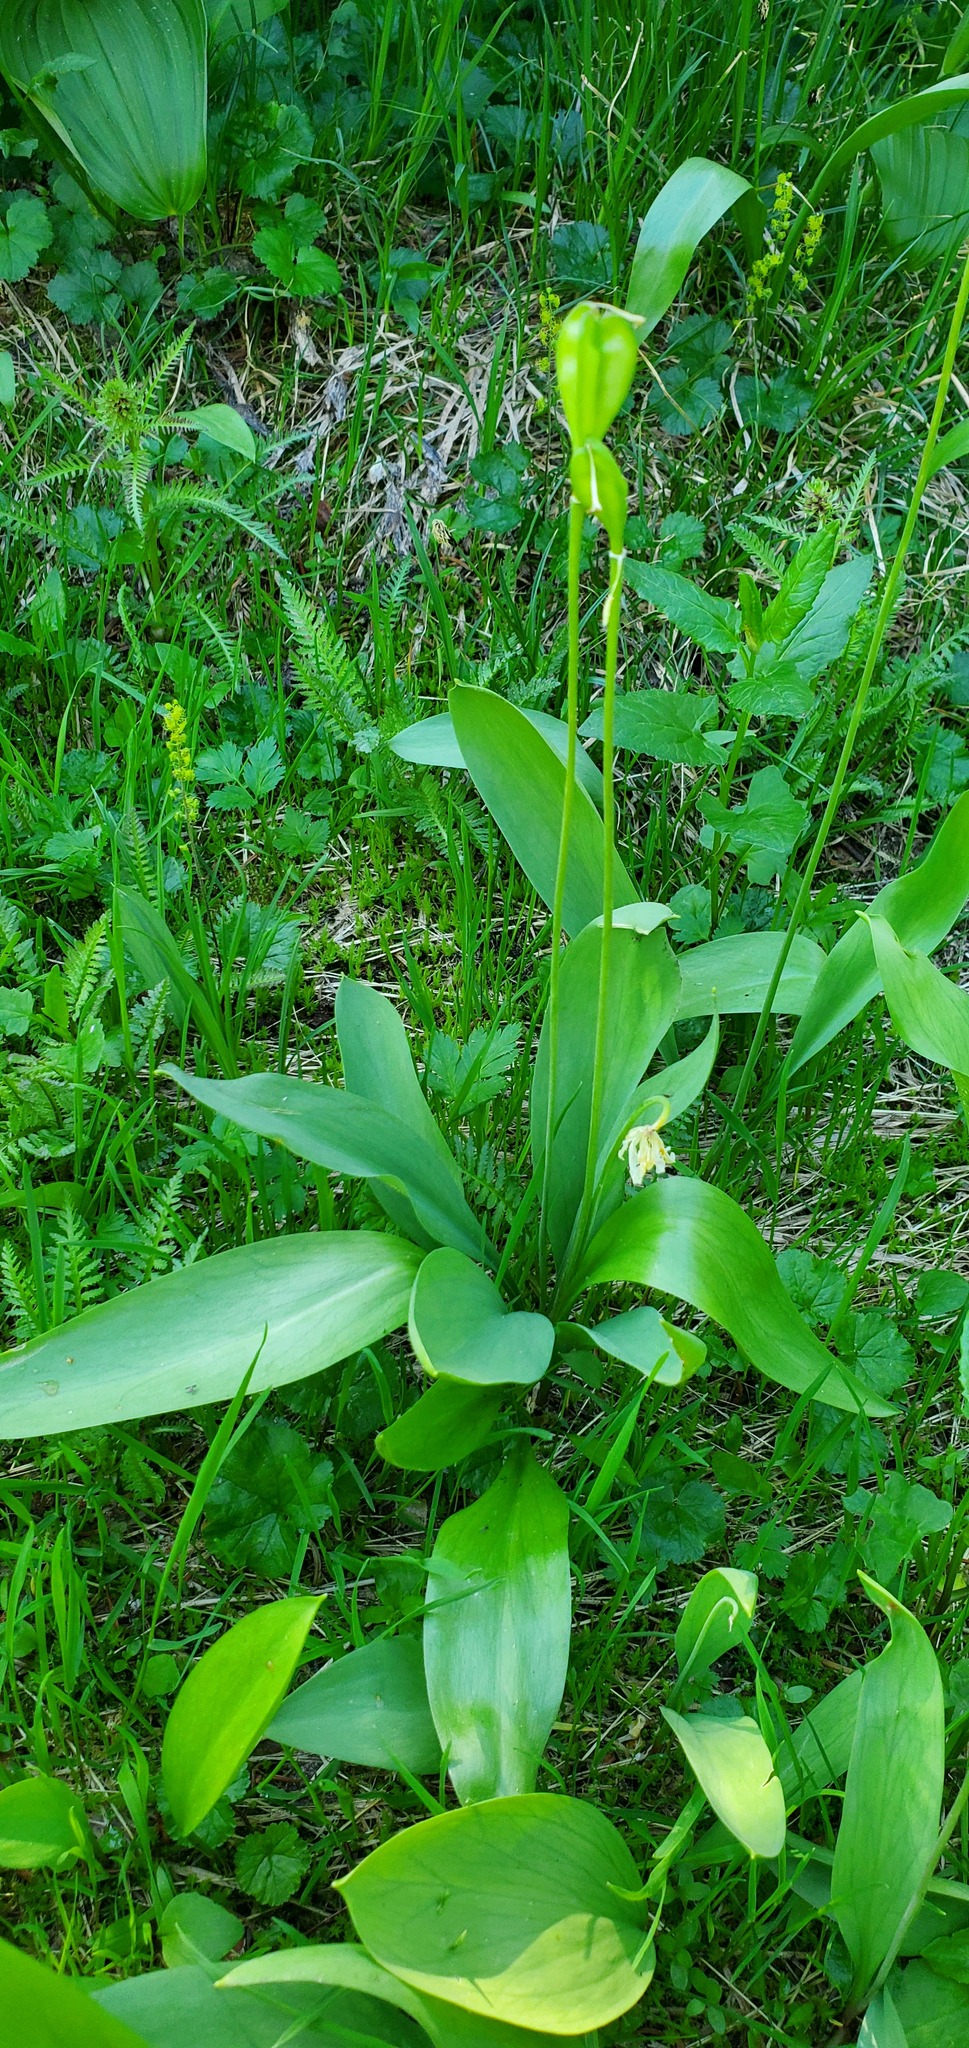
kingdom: Plantae
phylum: Tracheophyta
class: Liliopsida
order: Liliales
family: Liliaceae
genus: Erythronium
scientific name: Erythronium grandiflorum
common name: Avalanche-lily
